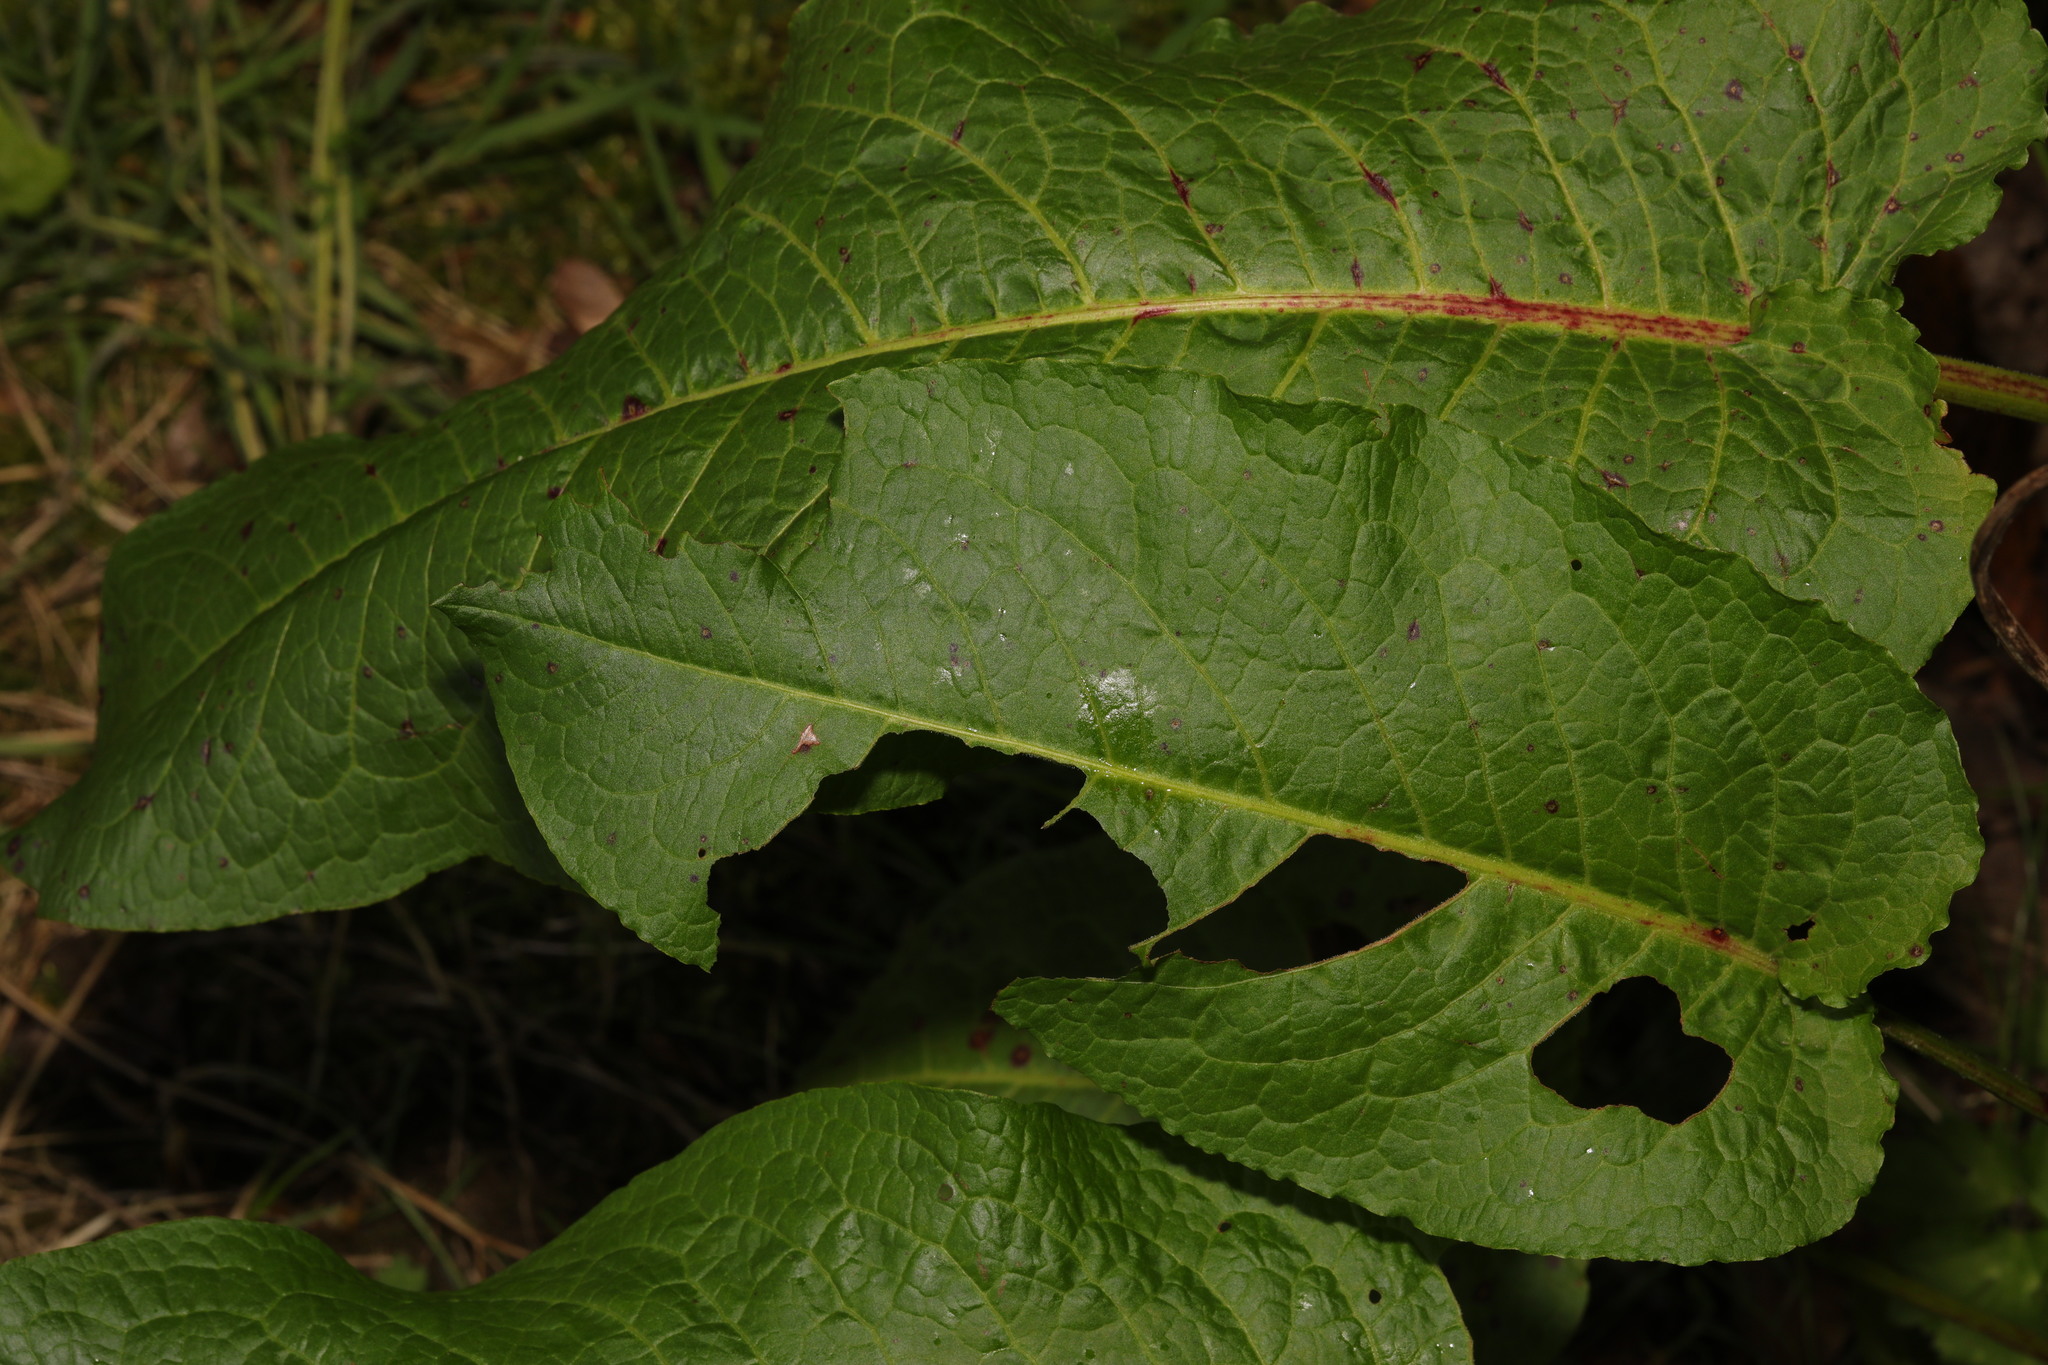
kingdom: Plantae
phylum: Tracheophyta
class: Magnoliopsida
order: Caryophyllales
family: Polygonaceae
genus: Rumex
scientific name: Rumex obtusifolius
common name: Bitter dock
